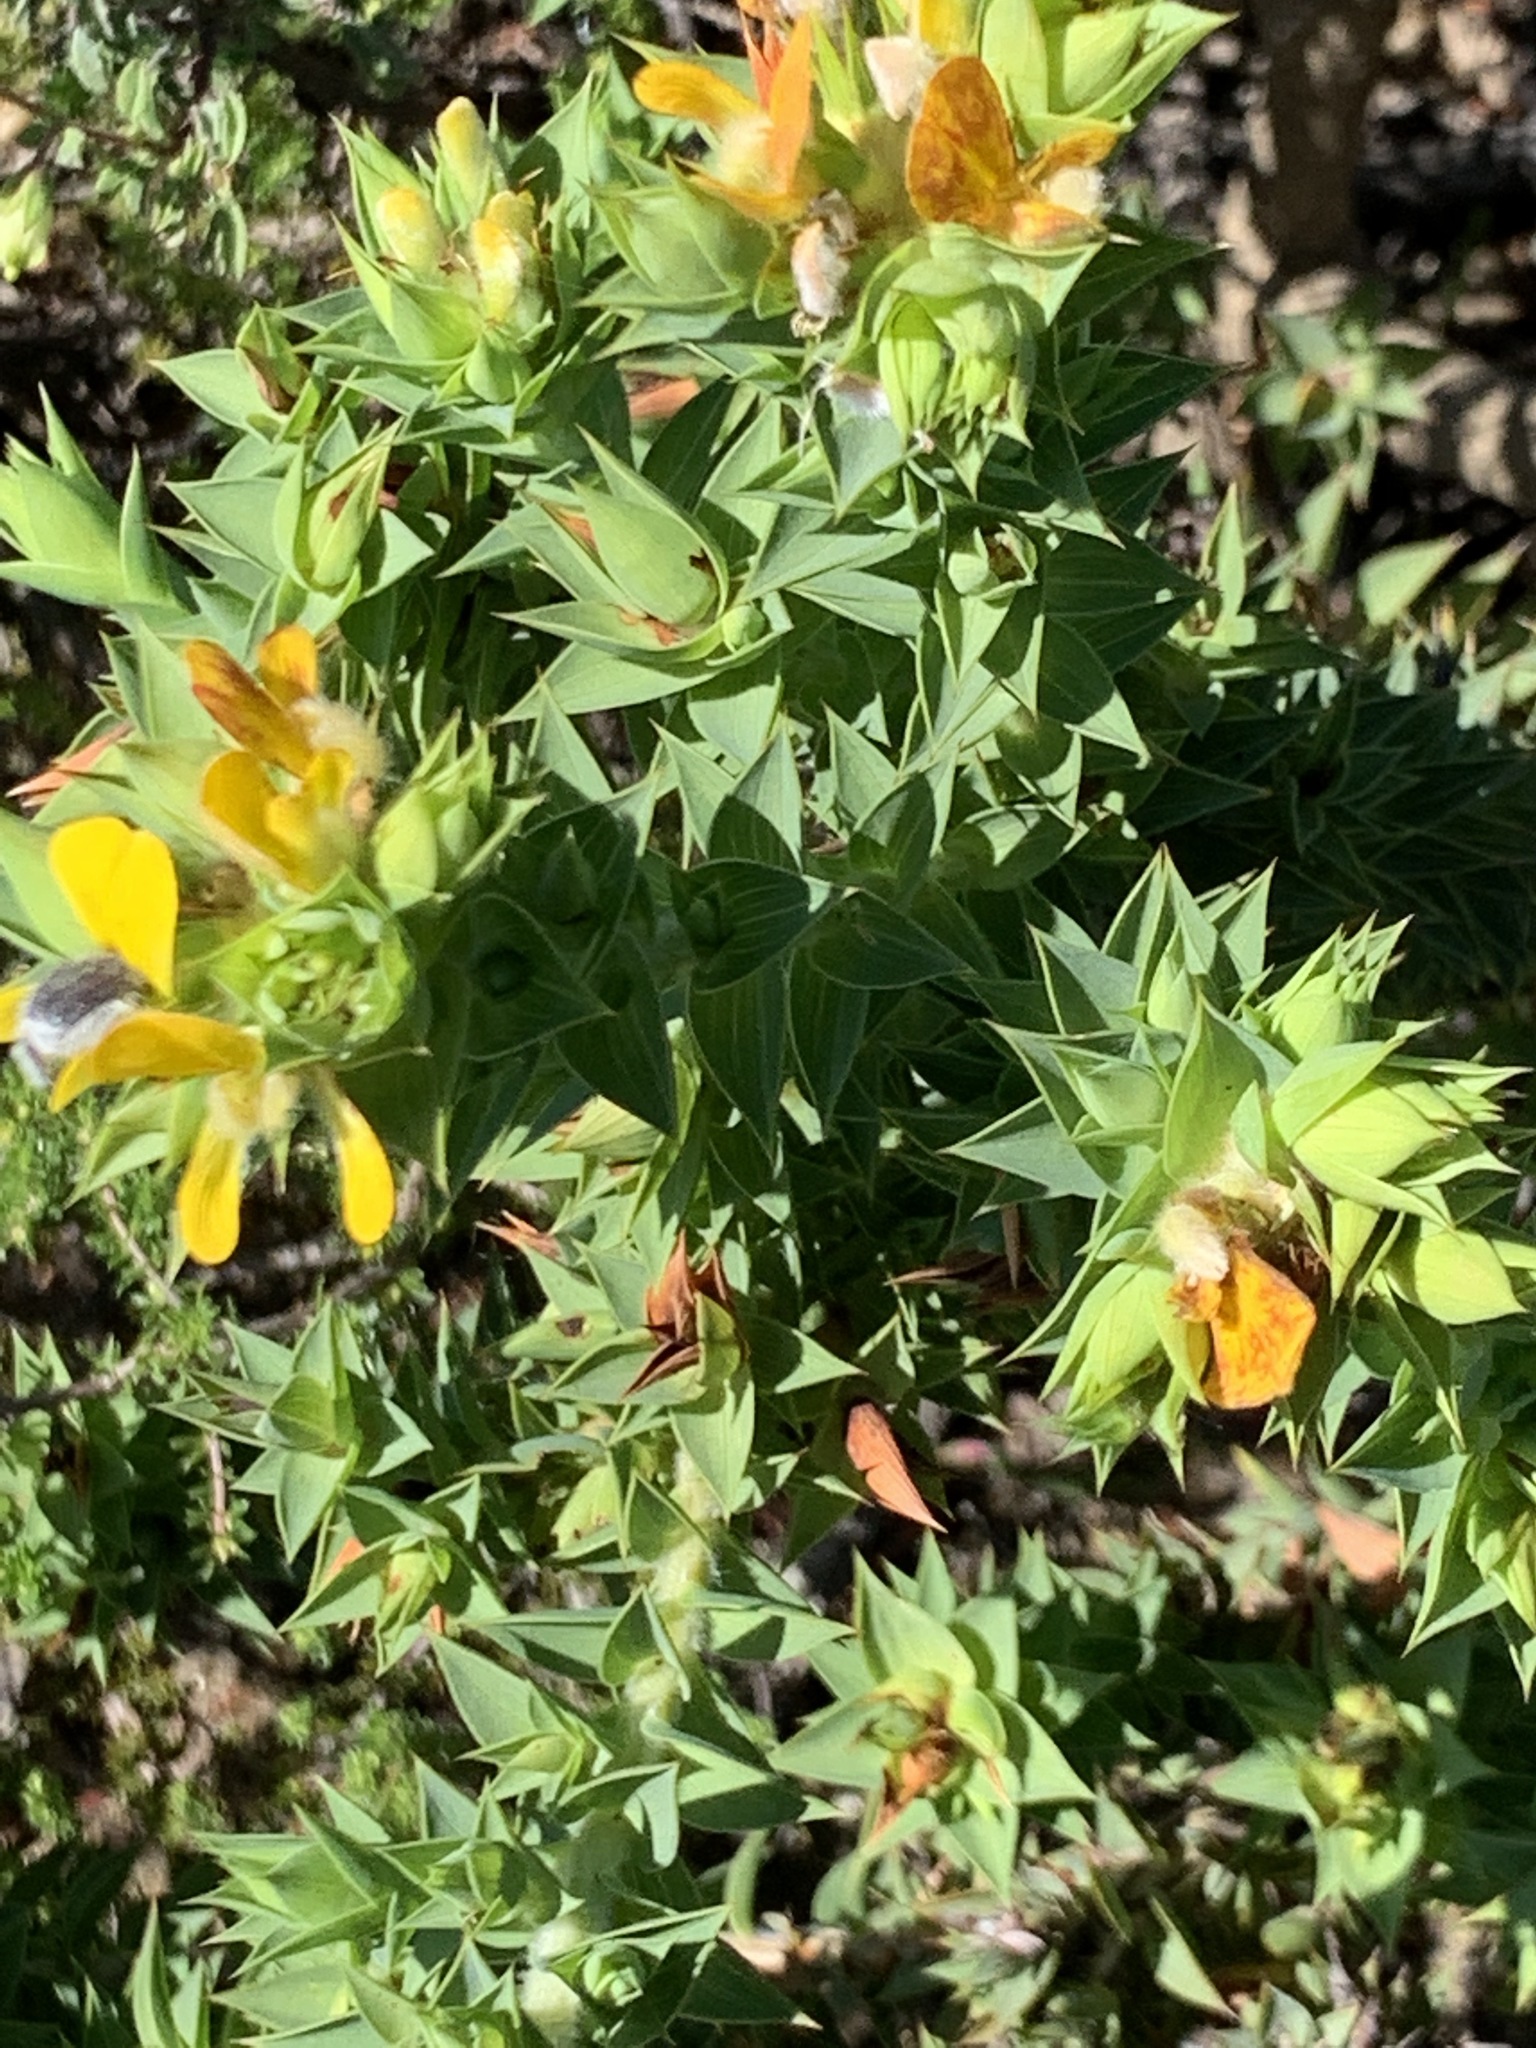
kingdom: Plantae
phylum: Tracheophyta
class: Magnoliopsida
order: Fabales
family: Fabaceae
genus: Aspalathus
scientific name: Aspalathus cordata
